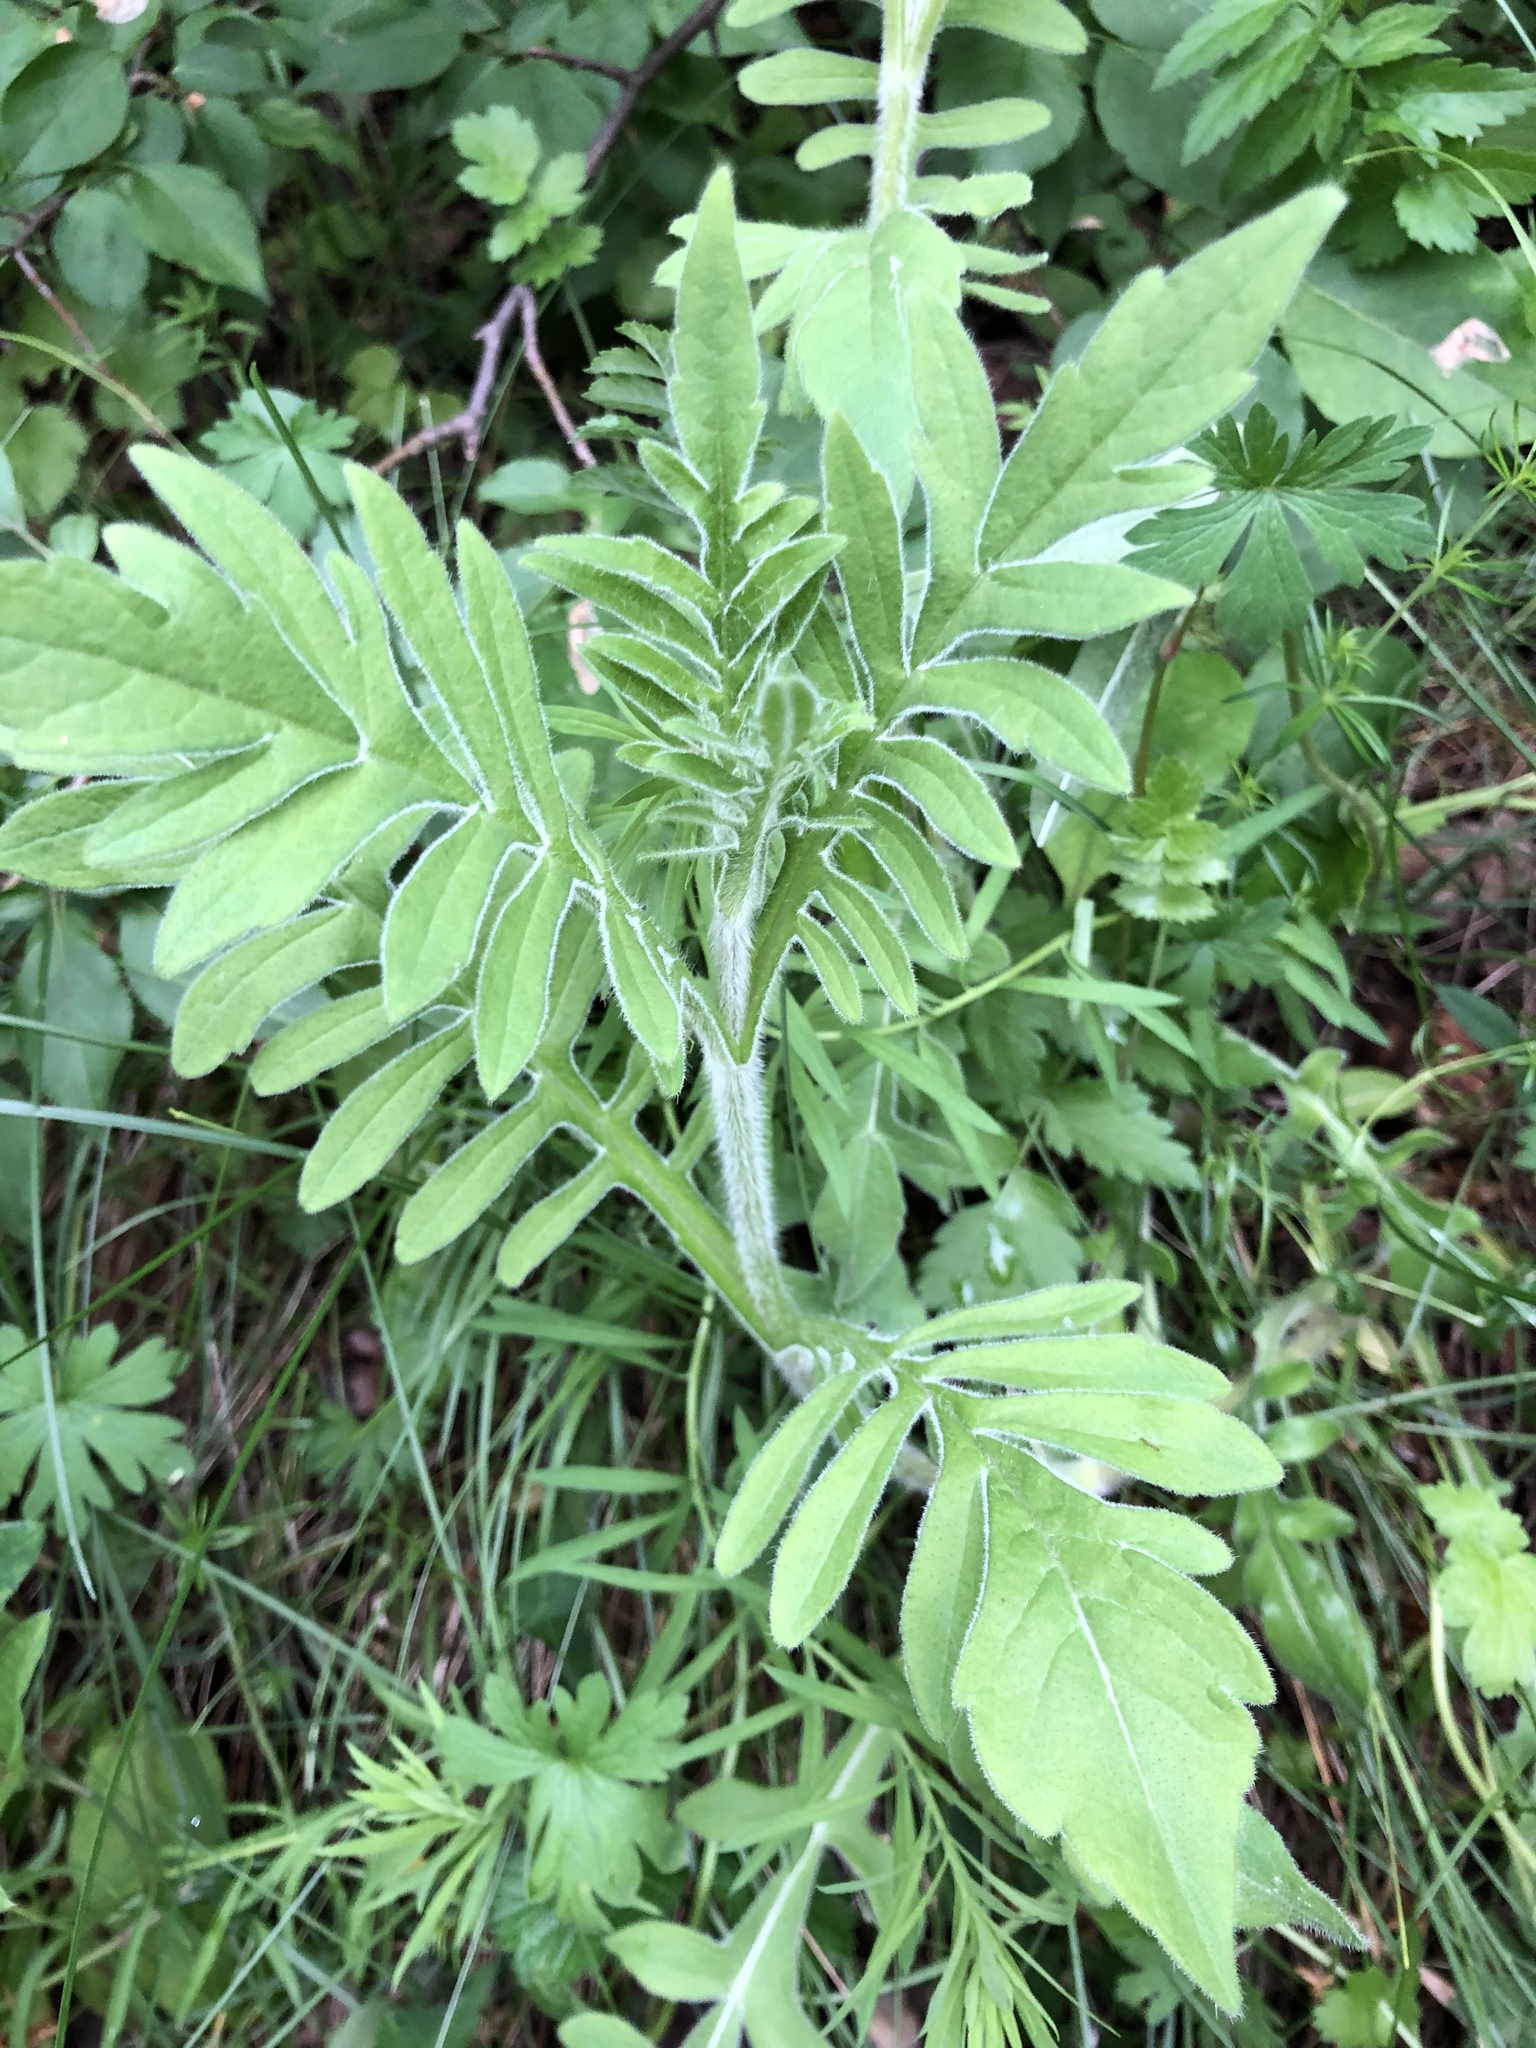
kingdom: Plantae
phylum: Tracheophyta
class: Magnoliopsida
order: Dipsacales
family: Caprifoliaceae
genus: Knautia
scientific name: Knautia arvensis
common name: Field scabiosa
